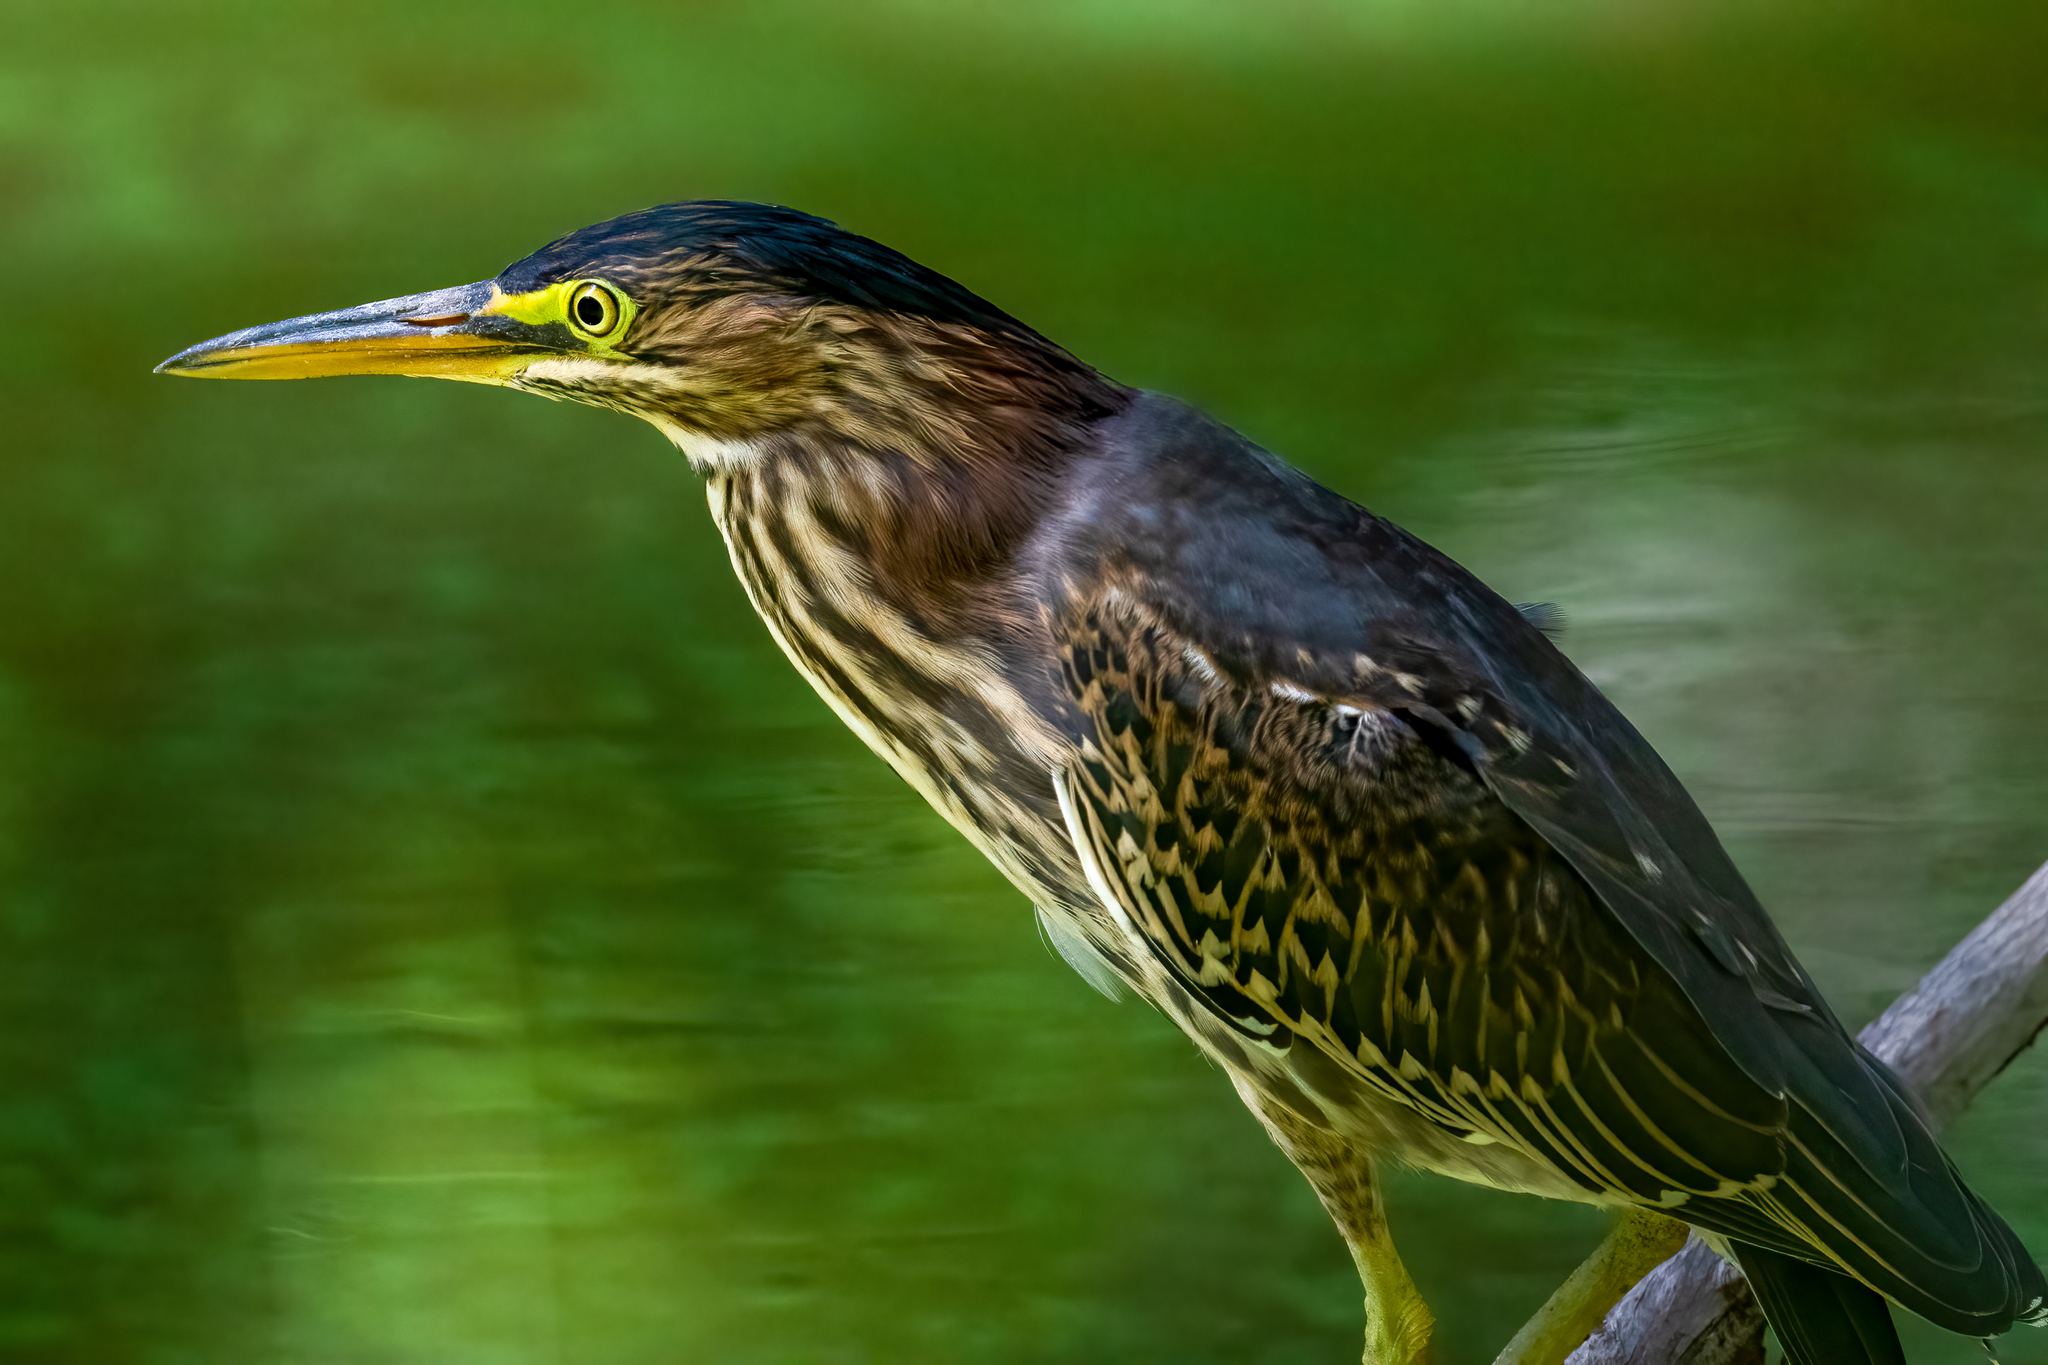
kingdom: Animalia
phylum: Chordata
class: Aves
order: Pelecaniformes
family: Ardeidae
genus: Butorides
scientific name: Butorides virescens
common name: Green heron
